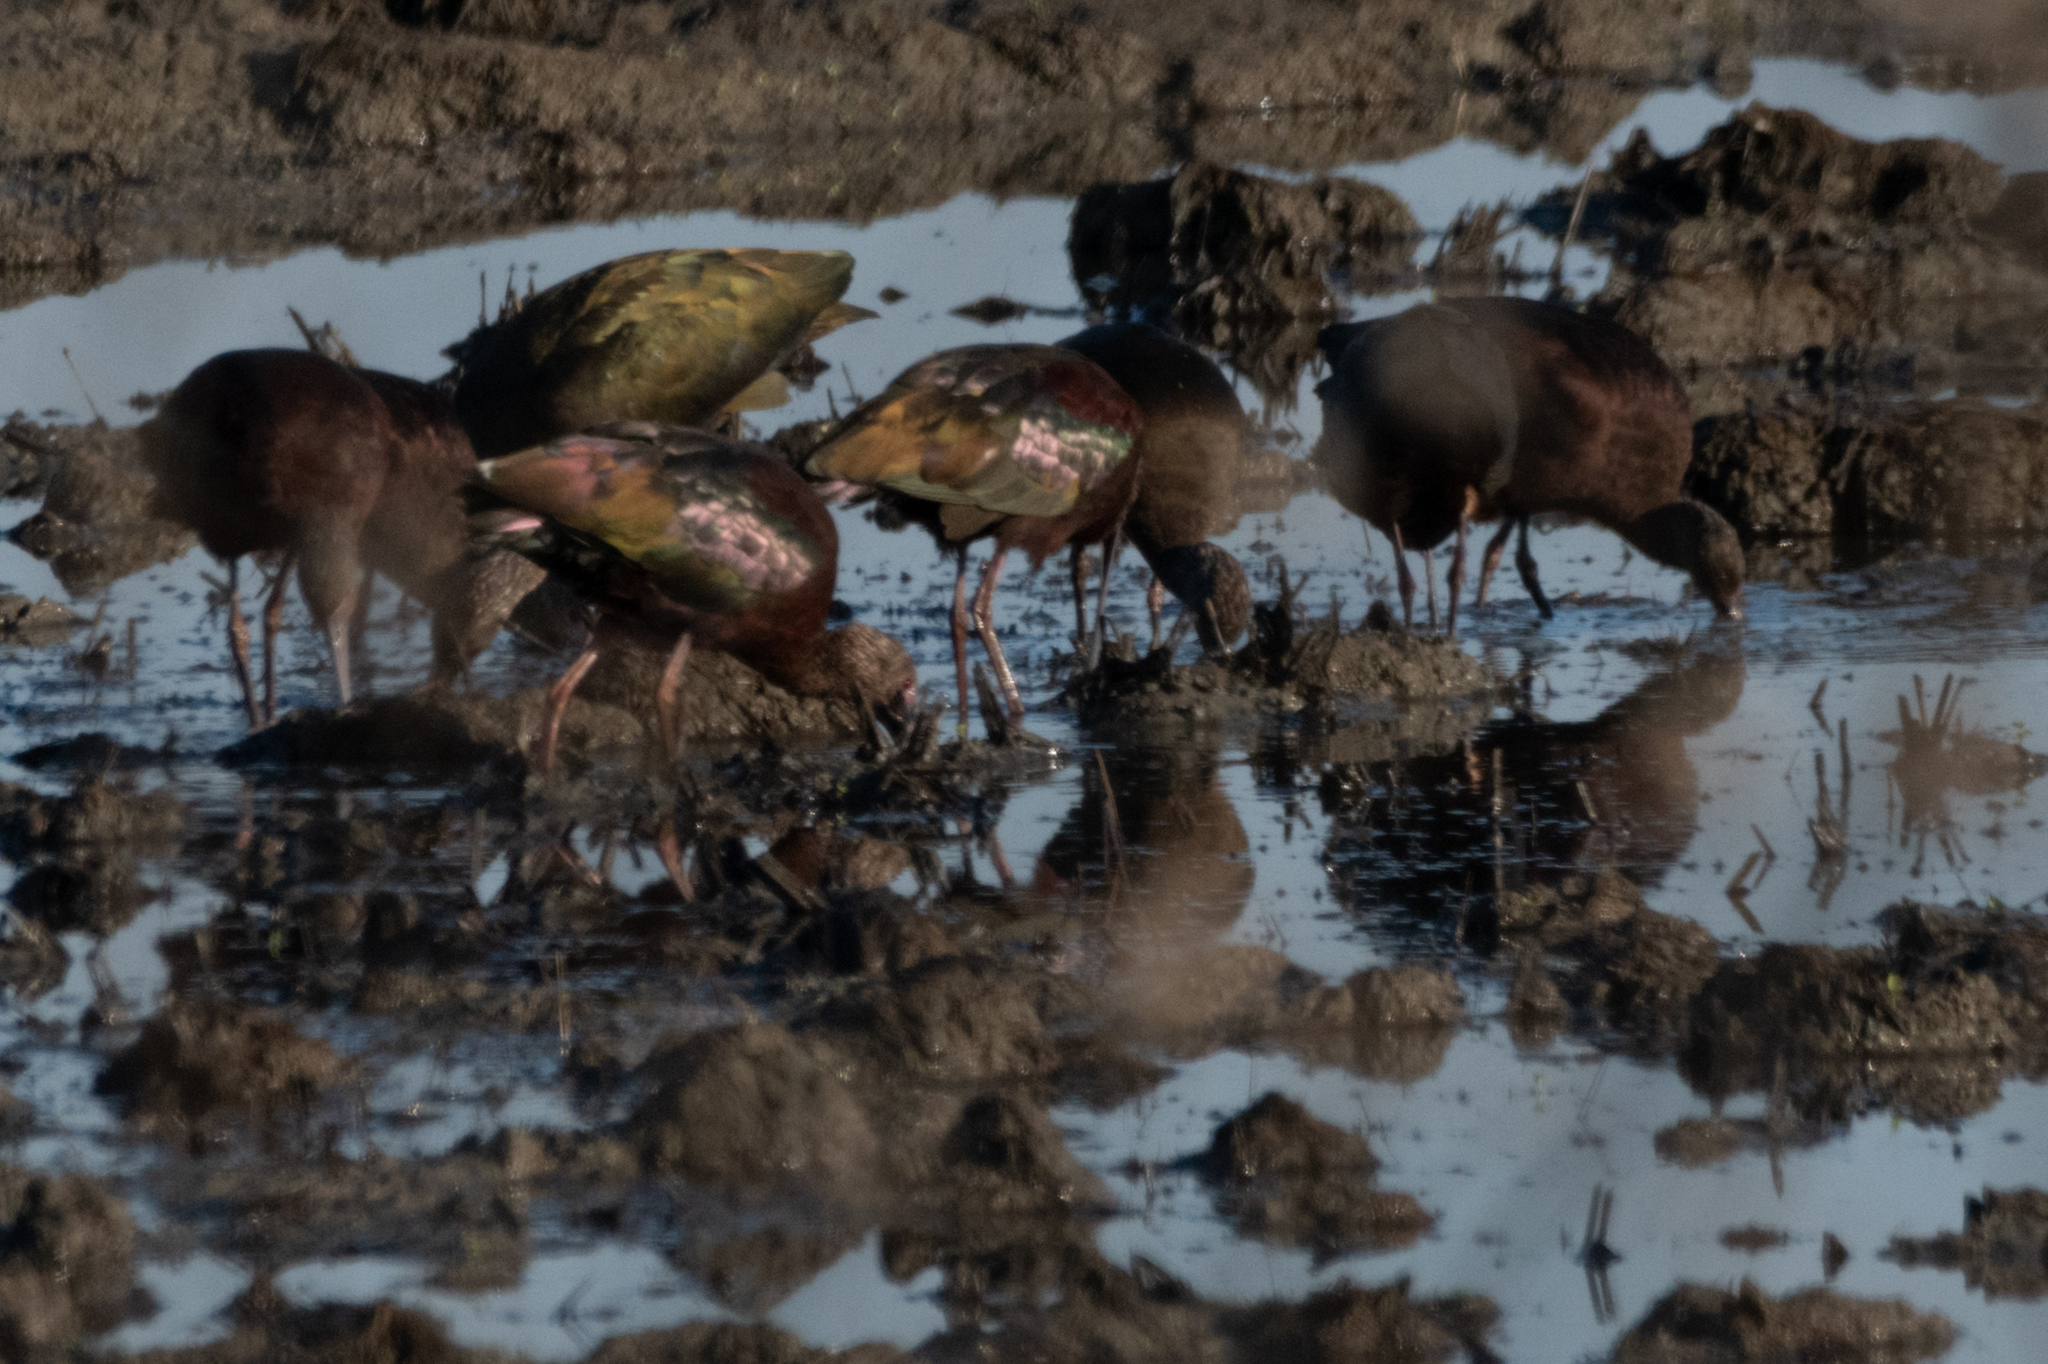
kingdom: Animalia
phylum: Chordata
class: Aves
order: Pelecaniformes
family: Threskiornithidae
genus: Plegadis
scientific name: Plegadis chihi
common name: White-faced ibis
